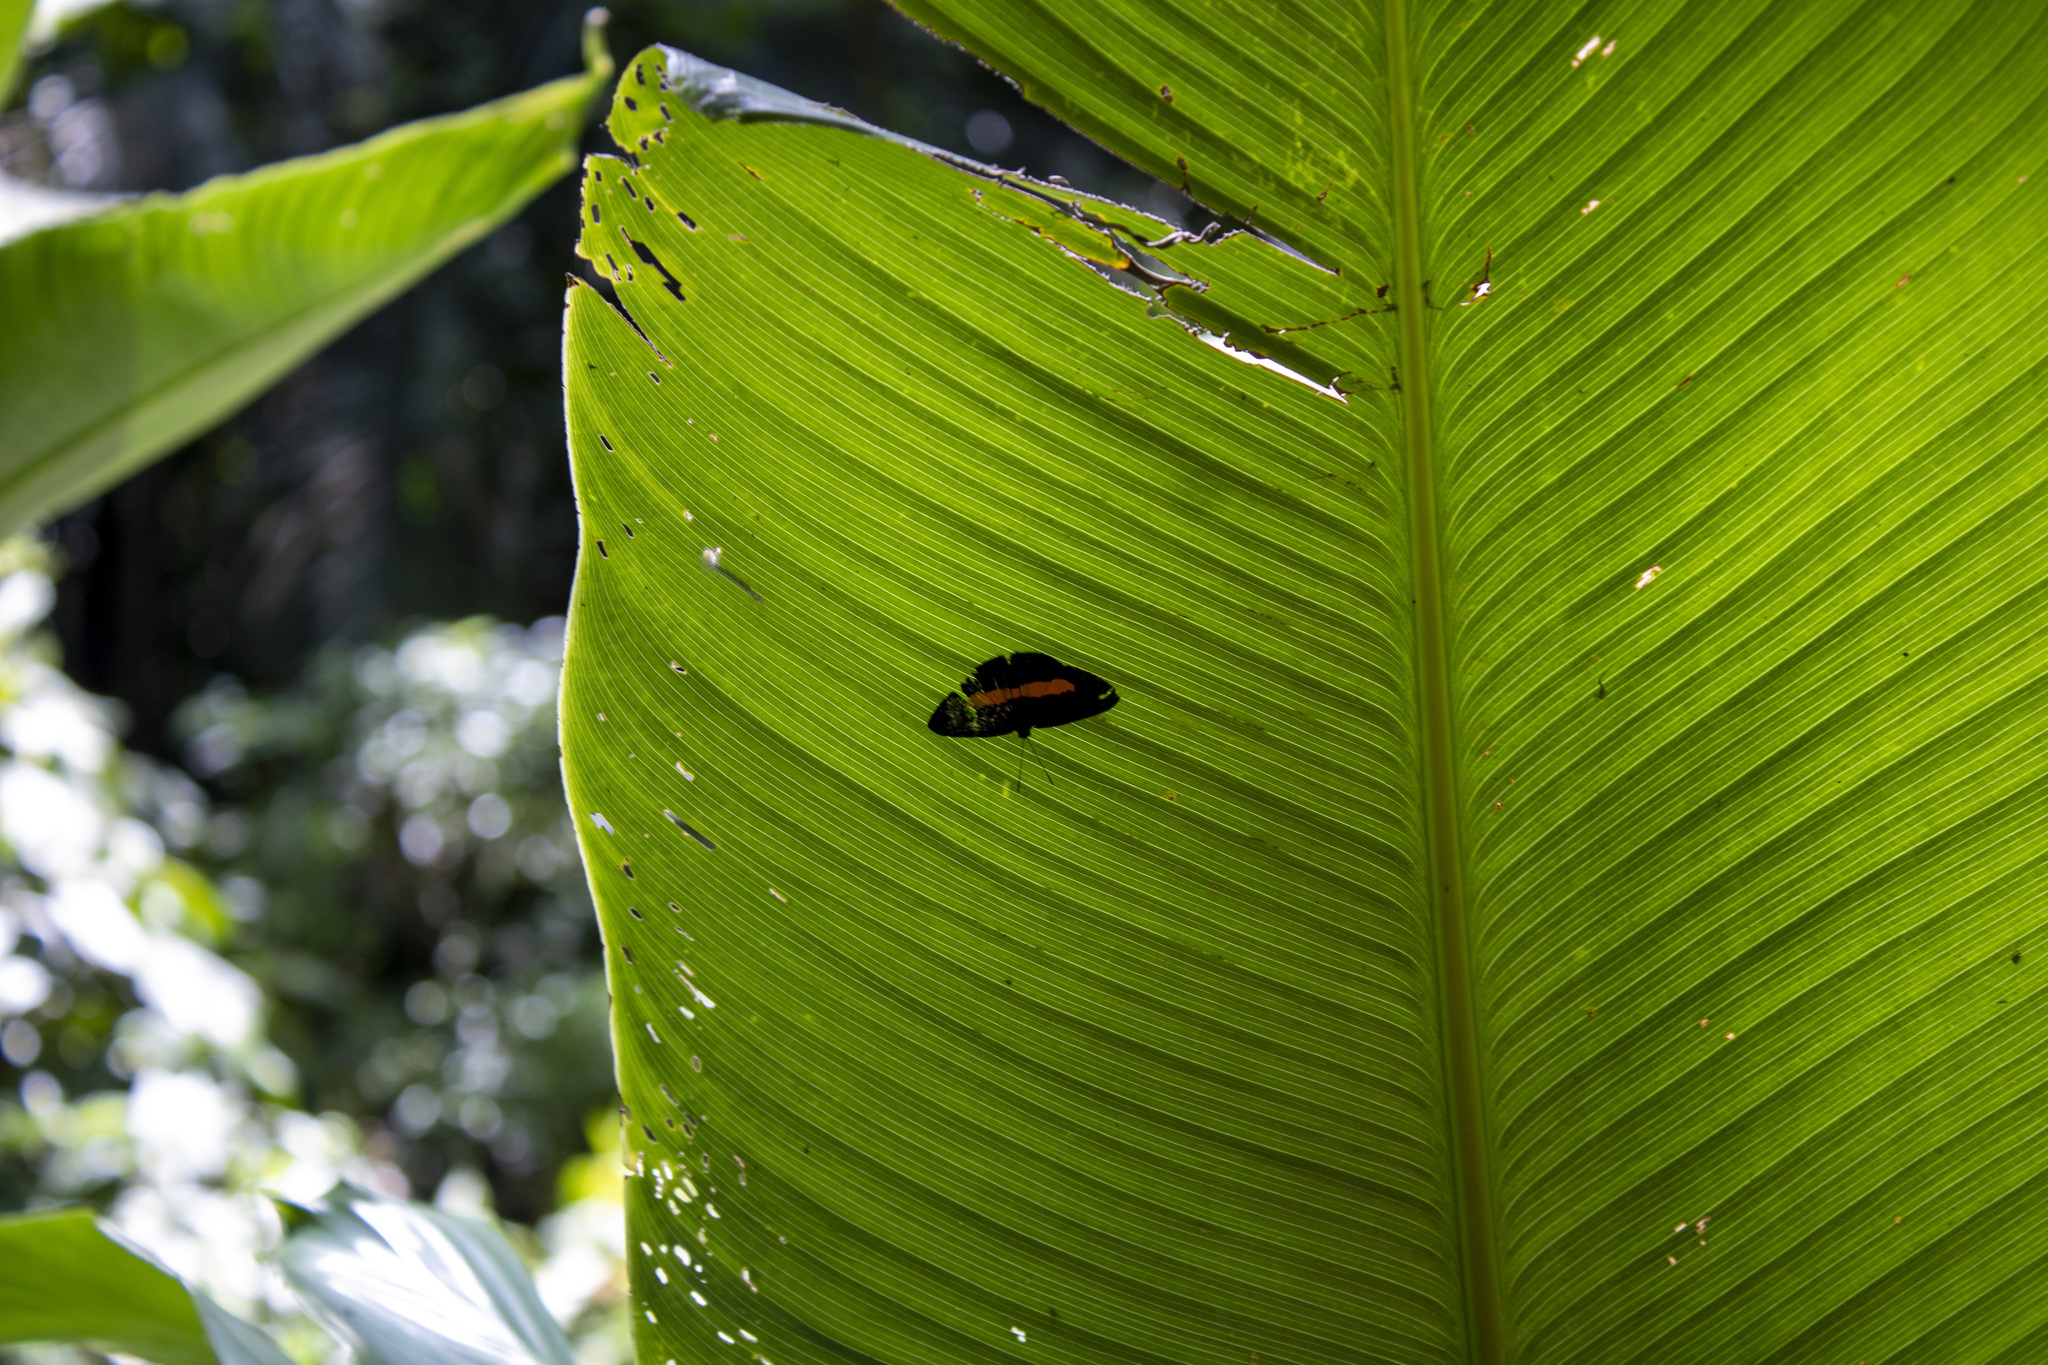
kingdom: Animalia
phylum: Arthropoda
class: Insecta
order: Lepidoptera
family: Riodinidae
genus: Pirascca
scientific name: Pirascca sagaris
